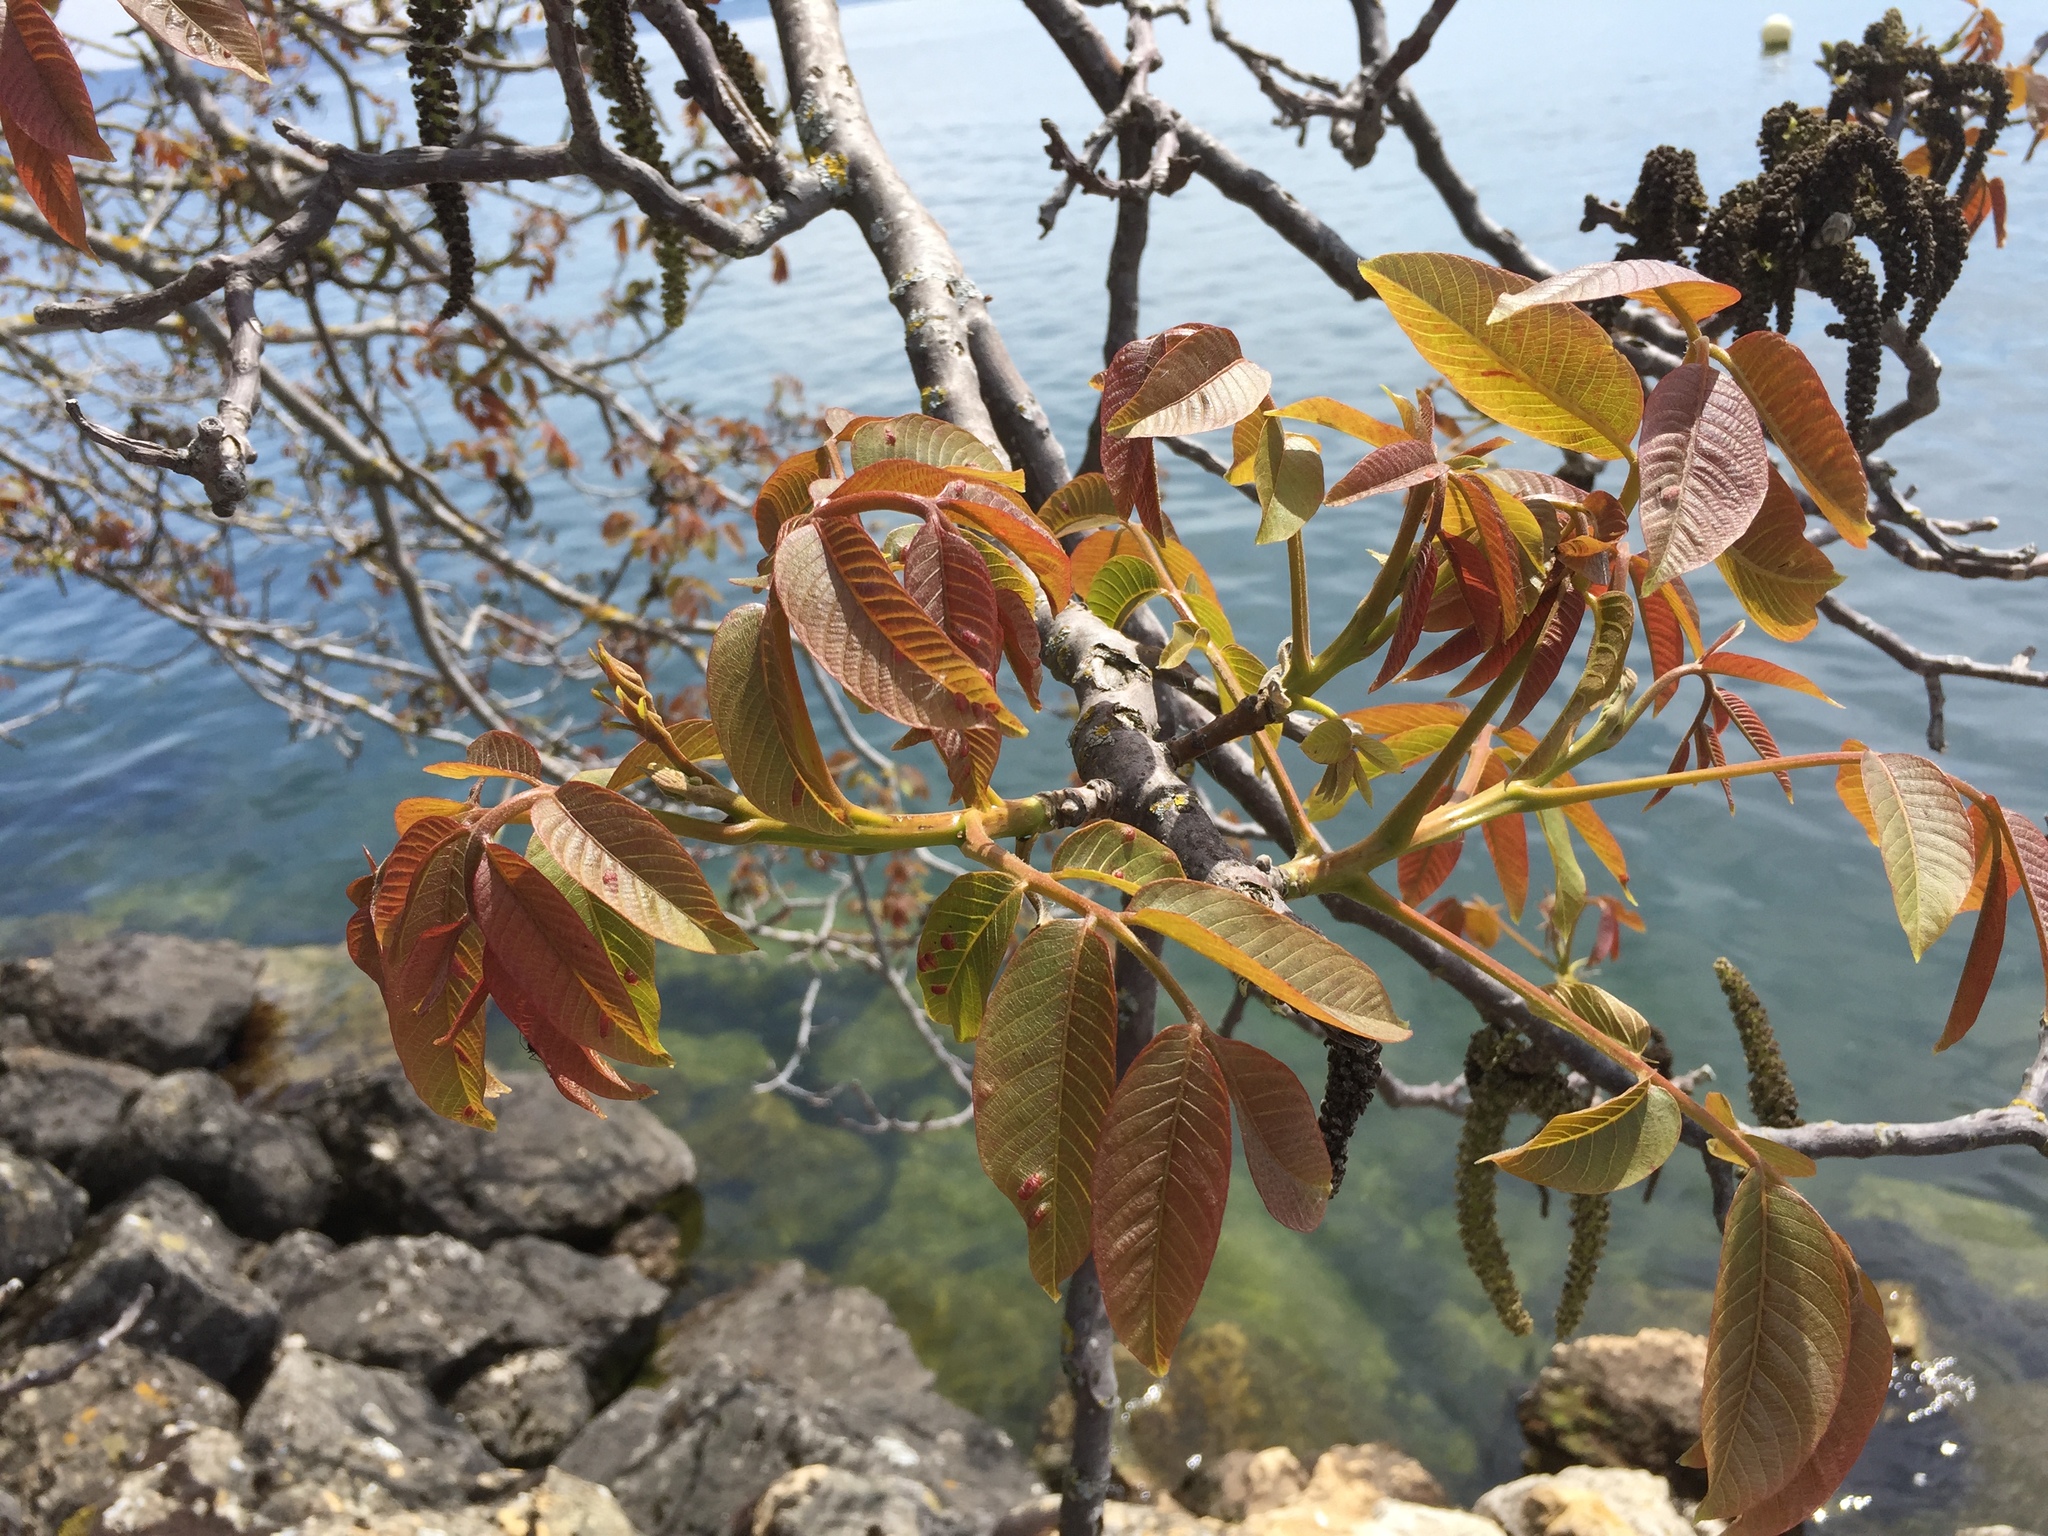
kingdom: Plantae
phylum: Tracheophyta
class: Magnoliopsida
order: Fagales
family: Juglandaceae
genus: Juglans
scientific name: Juglans regia
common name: Walnut
